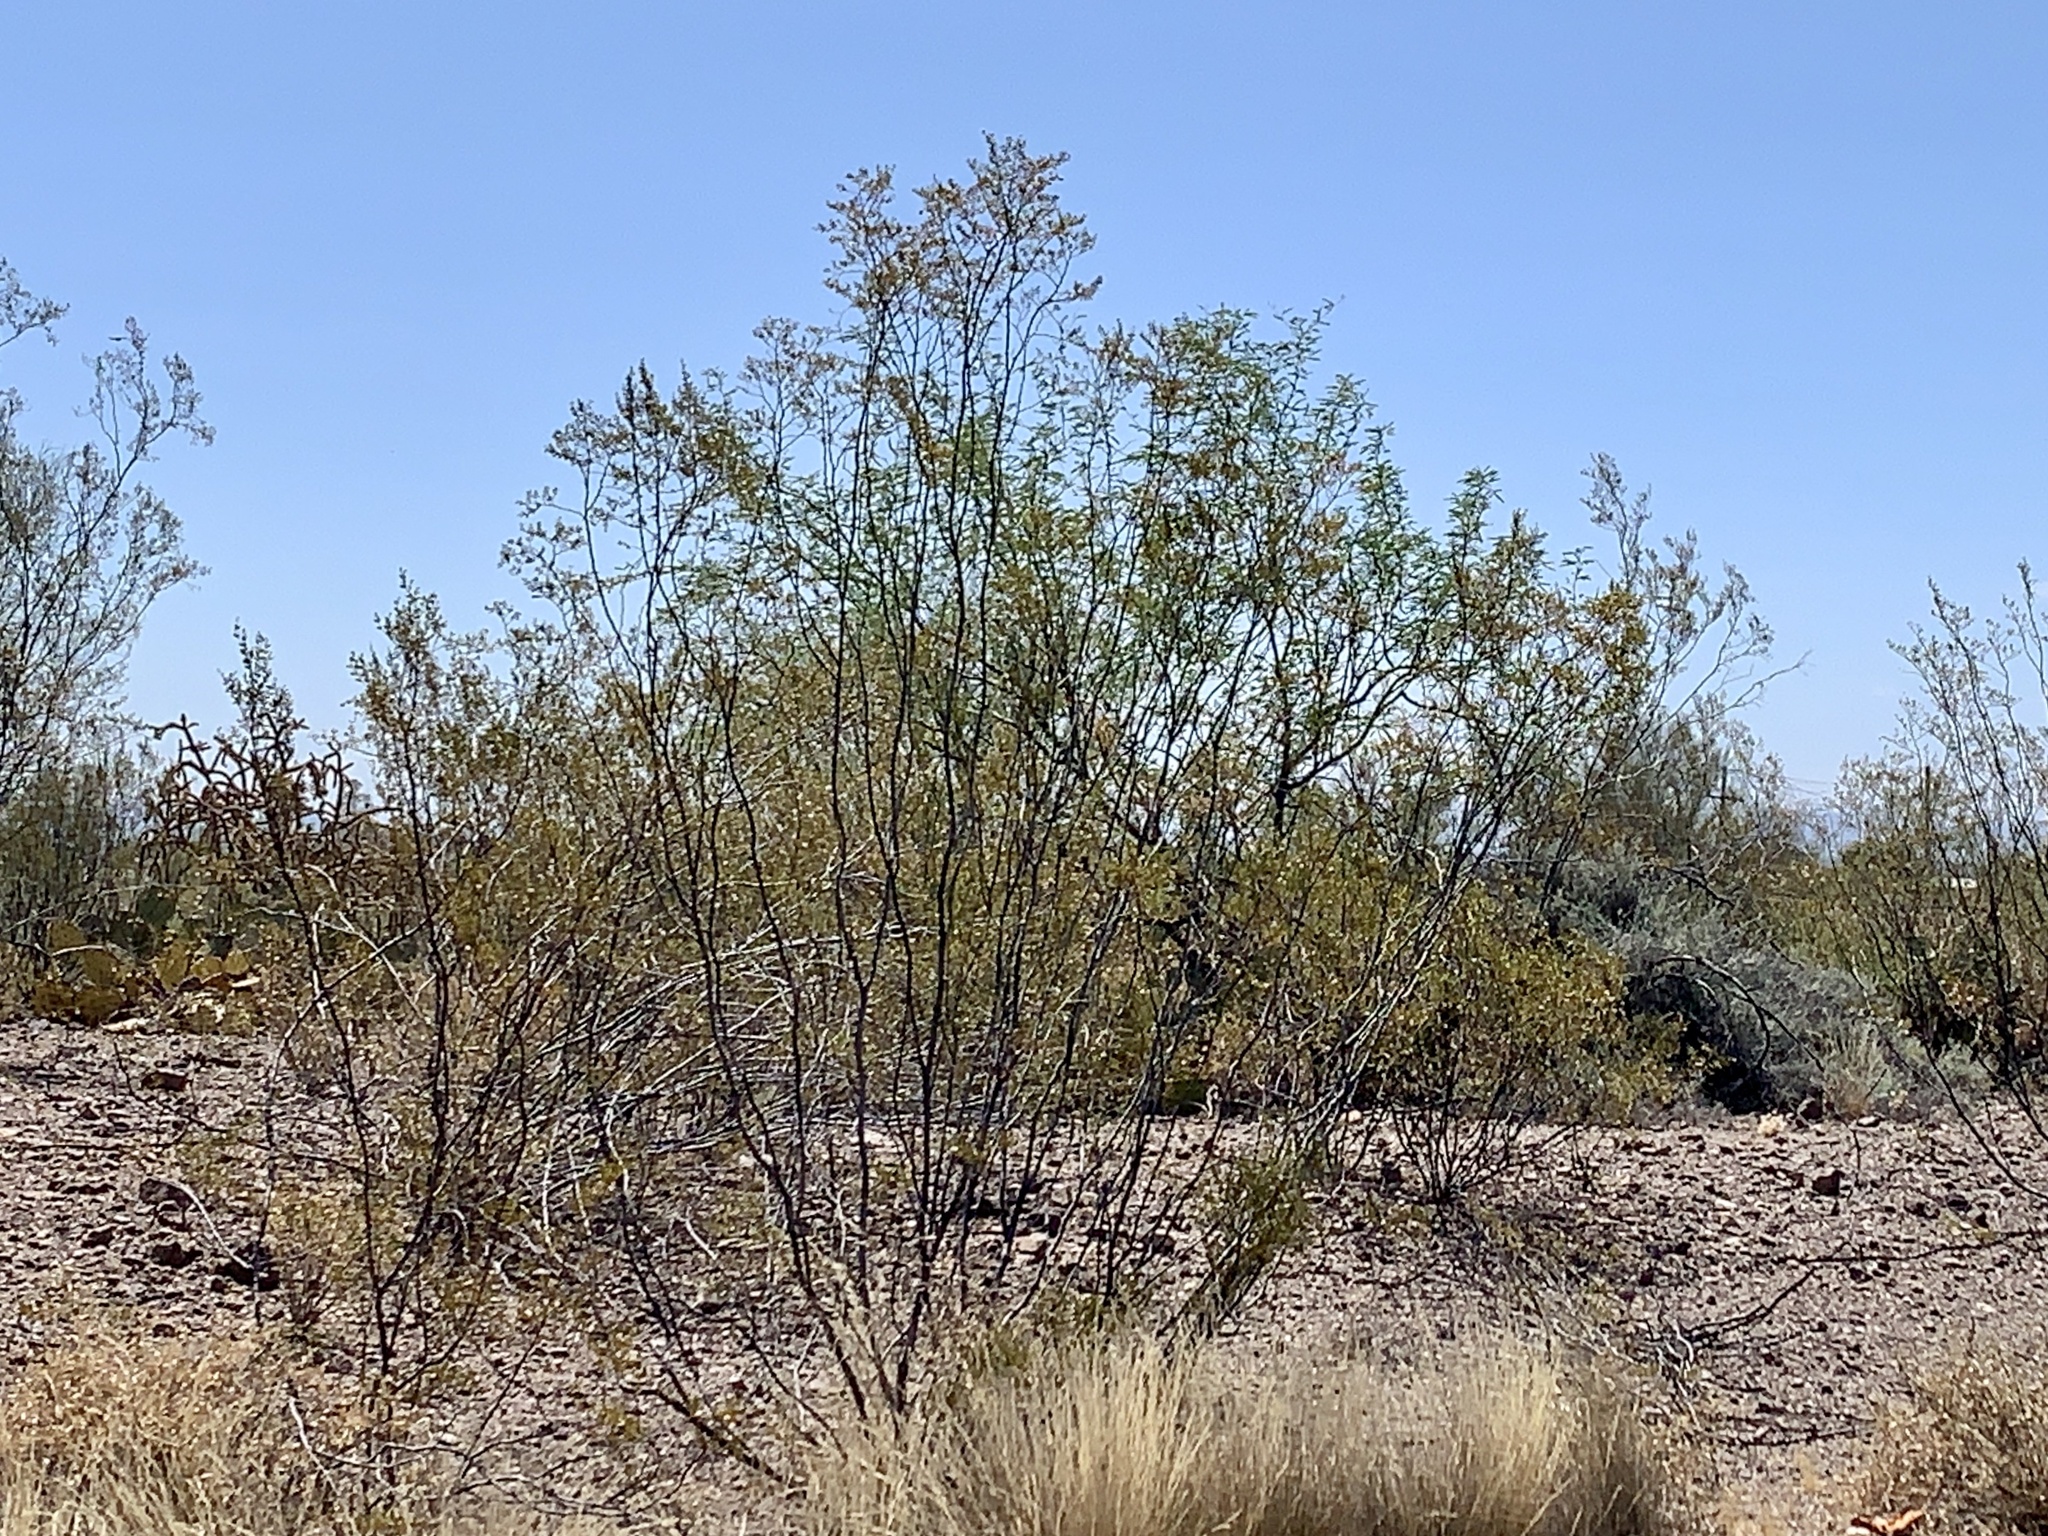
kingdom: Plantae
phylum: Tracheophyta
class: Magnoliopsida
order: Zygophyllales
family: Zygophyllaceae
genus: Larrea
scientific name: Larrea tridentata
